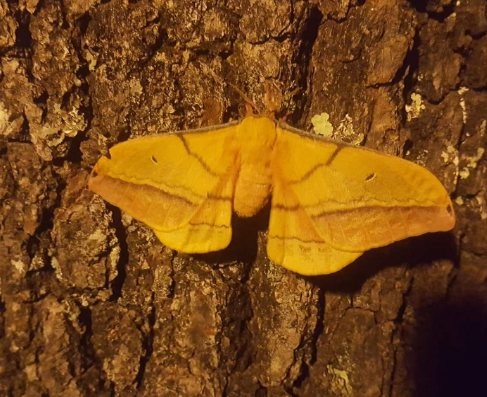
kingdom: Animalia
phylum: Arthropoda
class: Insecta
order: Lepidoptera
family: Saturniidae
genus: Copaxa
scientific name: Copaxa mannana
